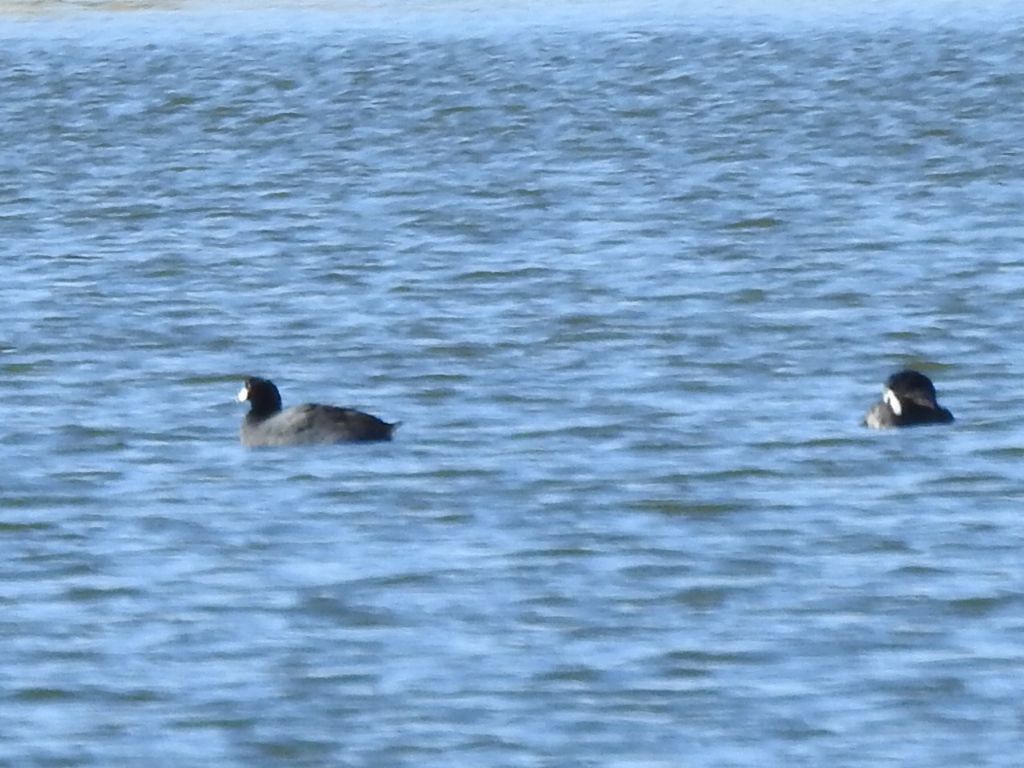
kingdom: Animalia
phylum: Chordata
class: Aves
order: Gruiformes
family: Rallidae
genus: Fulica
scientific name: Fulica americana
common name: American coot
